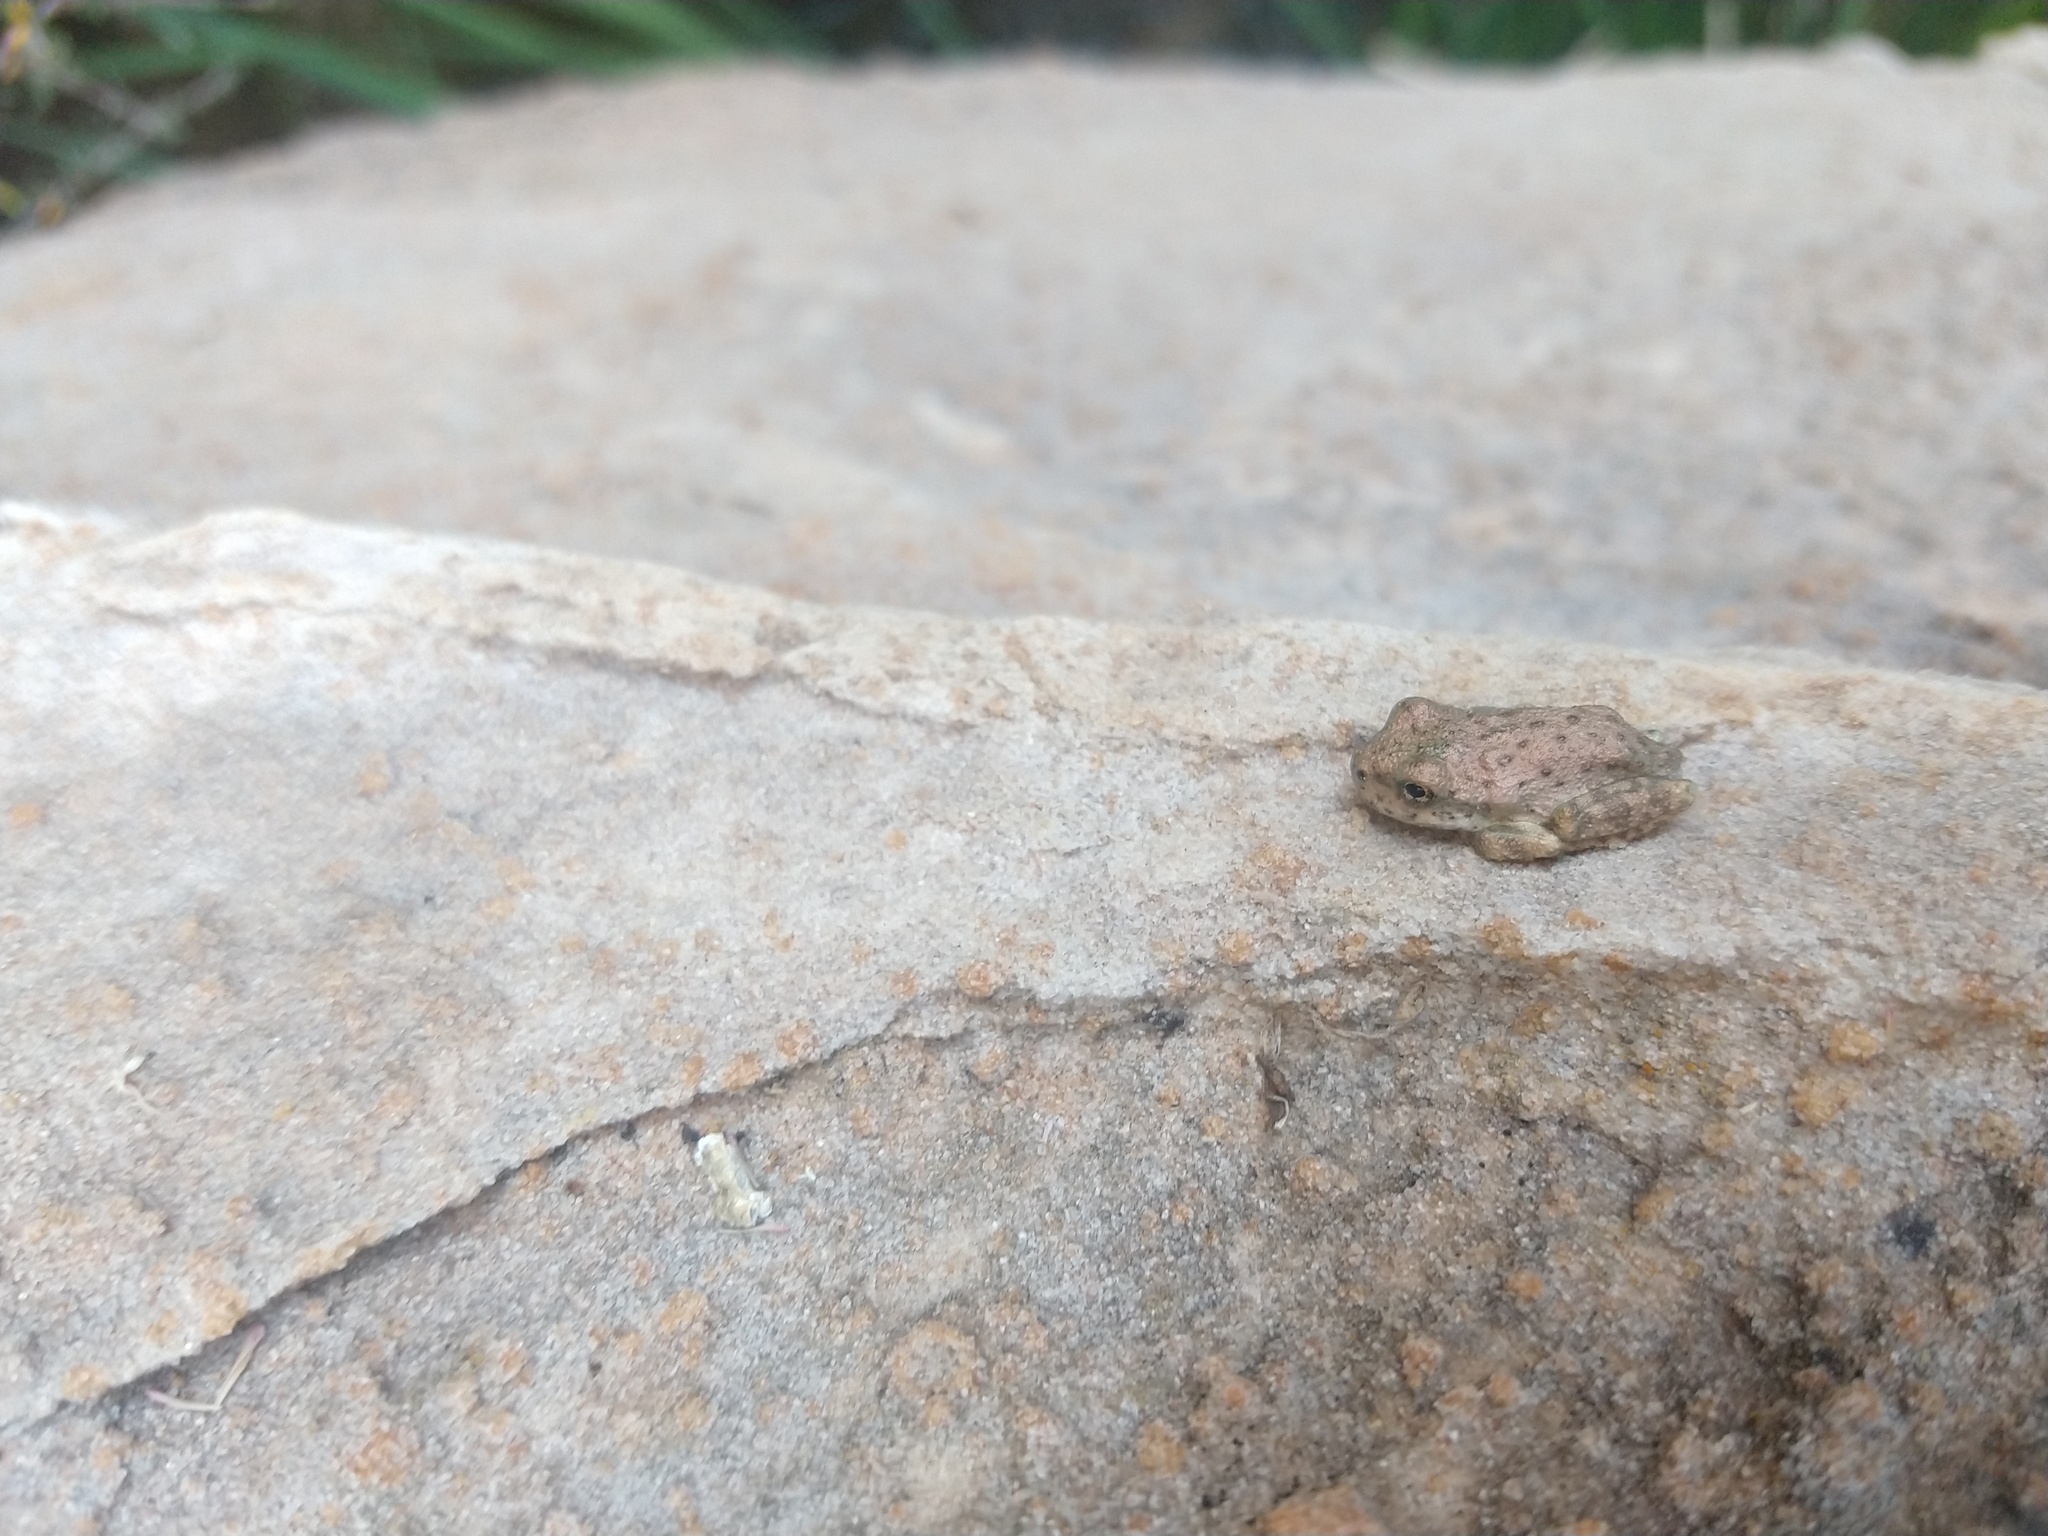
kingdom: Animalia
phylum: Chordata
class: Amphibia
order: Anura
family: Hylidae
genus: Dryophytes
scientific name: Dryophytes arenicolor
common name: Canyon treefrog
